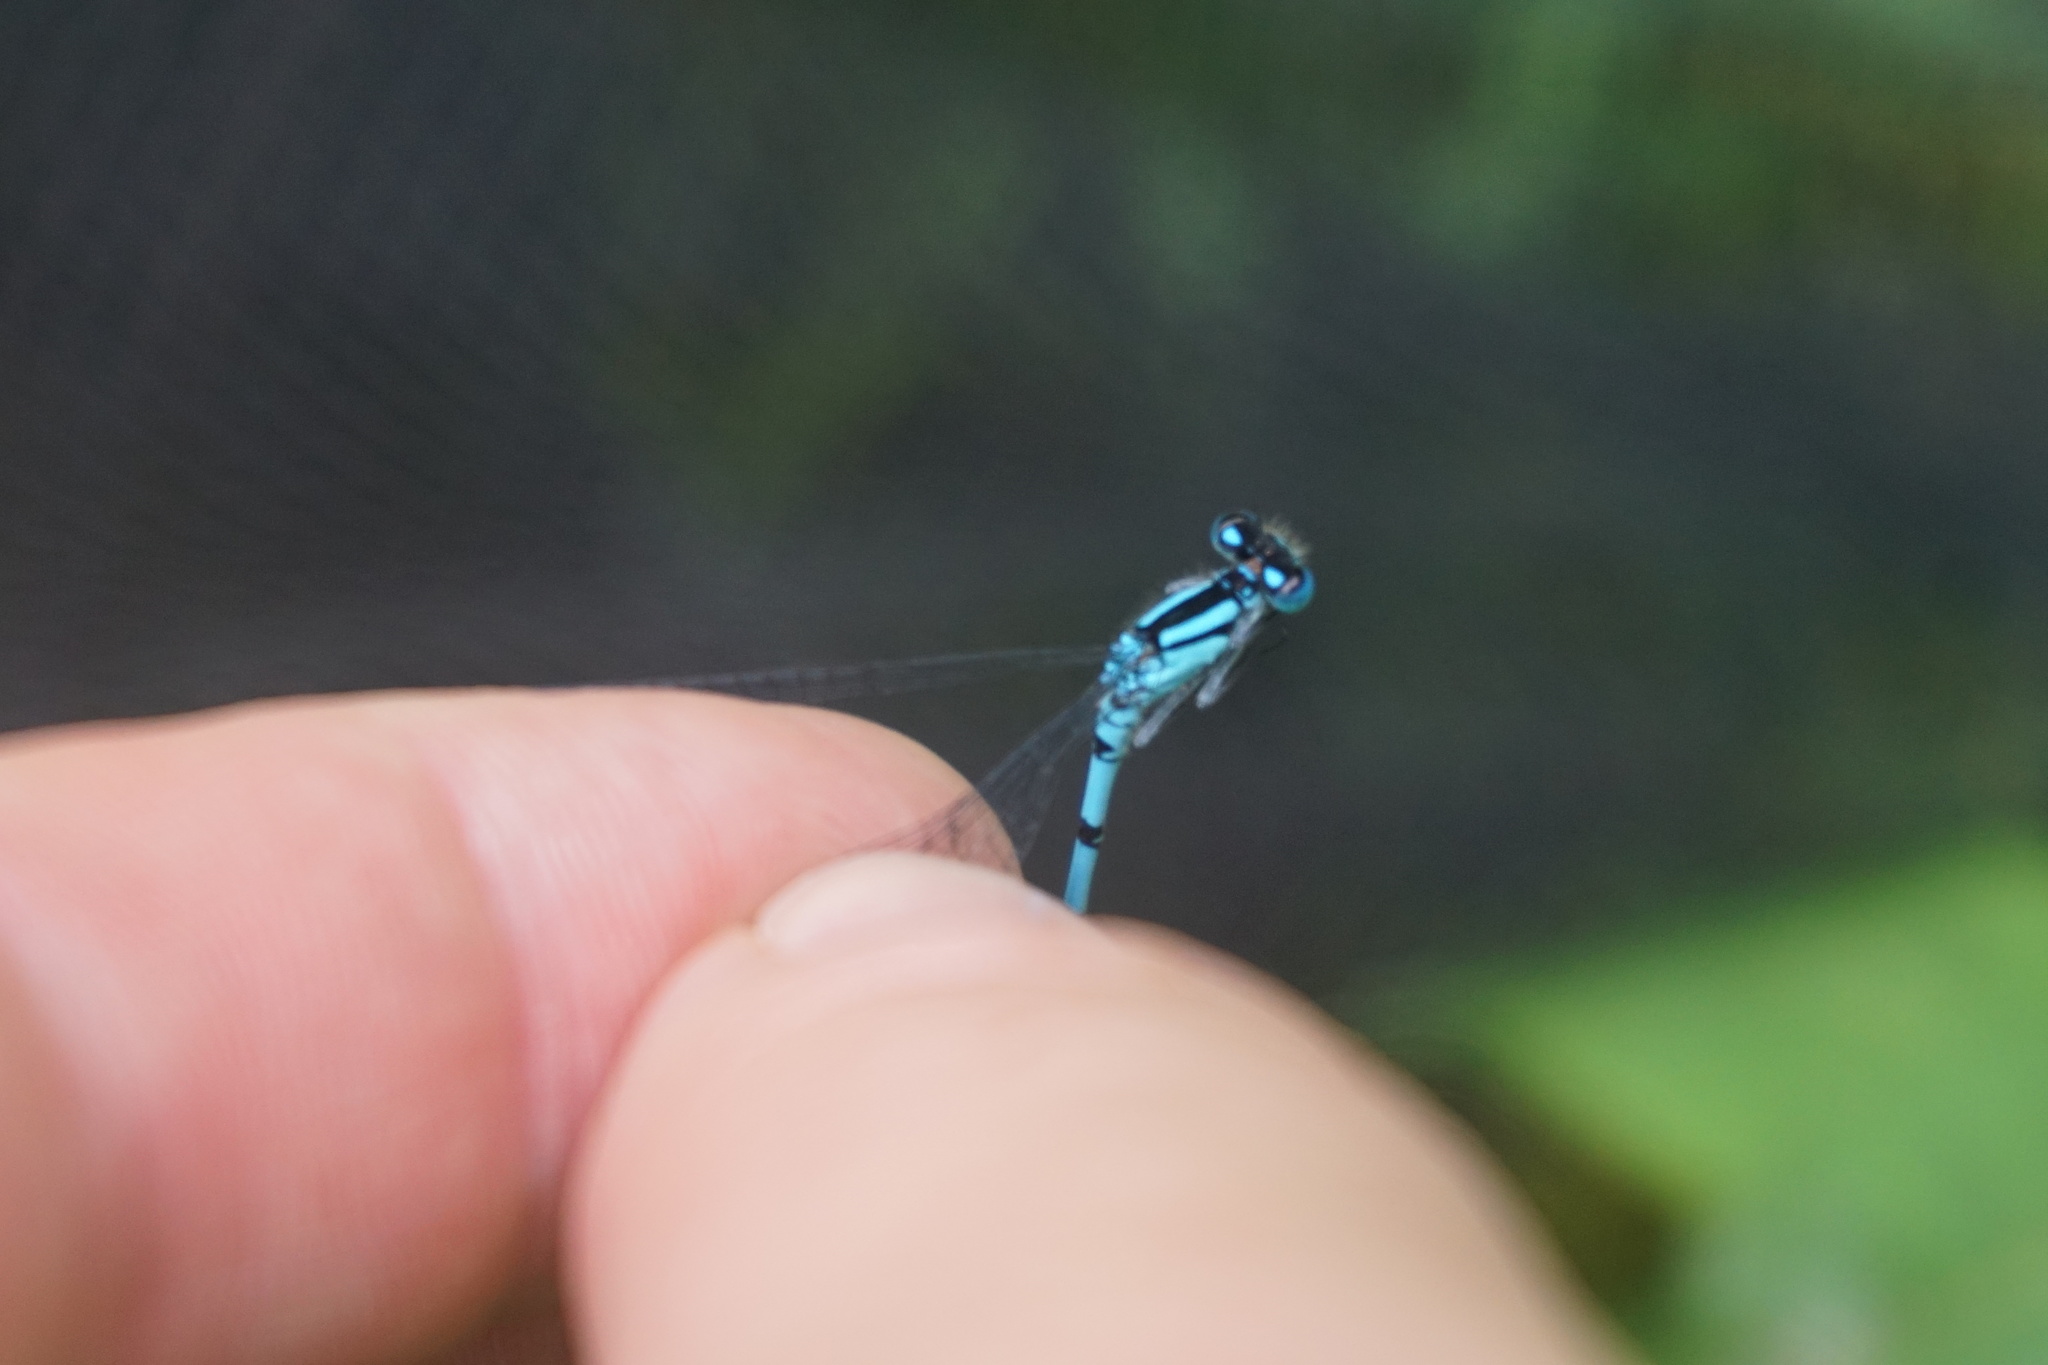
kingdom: Animalia
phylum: Arthropoda
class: Insecta
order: Odonata
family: Coenagrionidae
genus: Enallagma
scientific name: Enallagma cyathigerum
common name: Common blue damselfly
